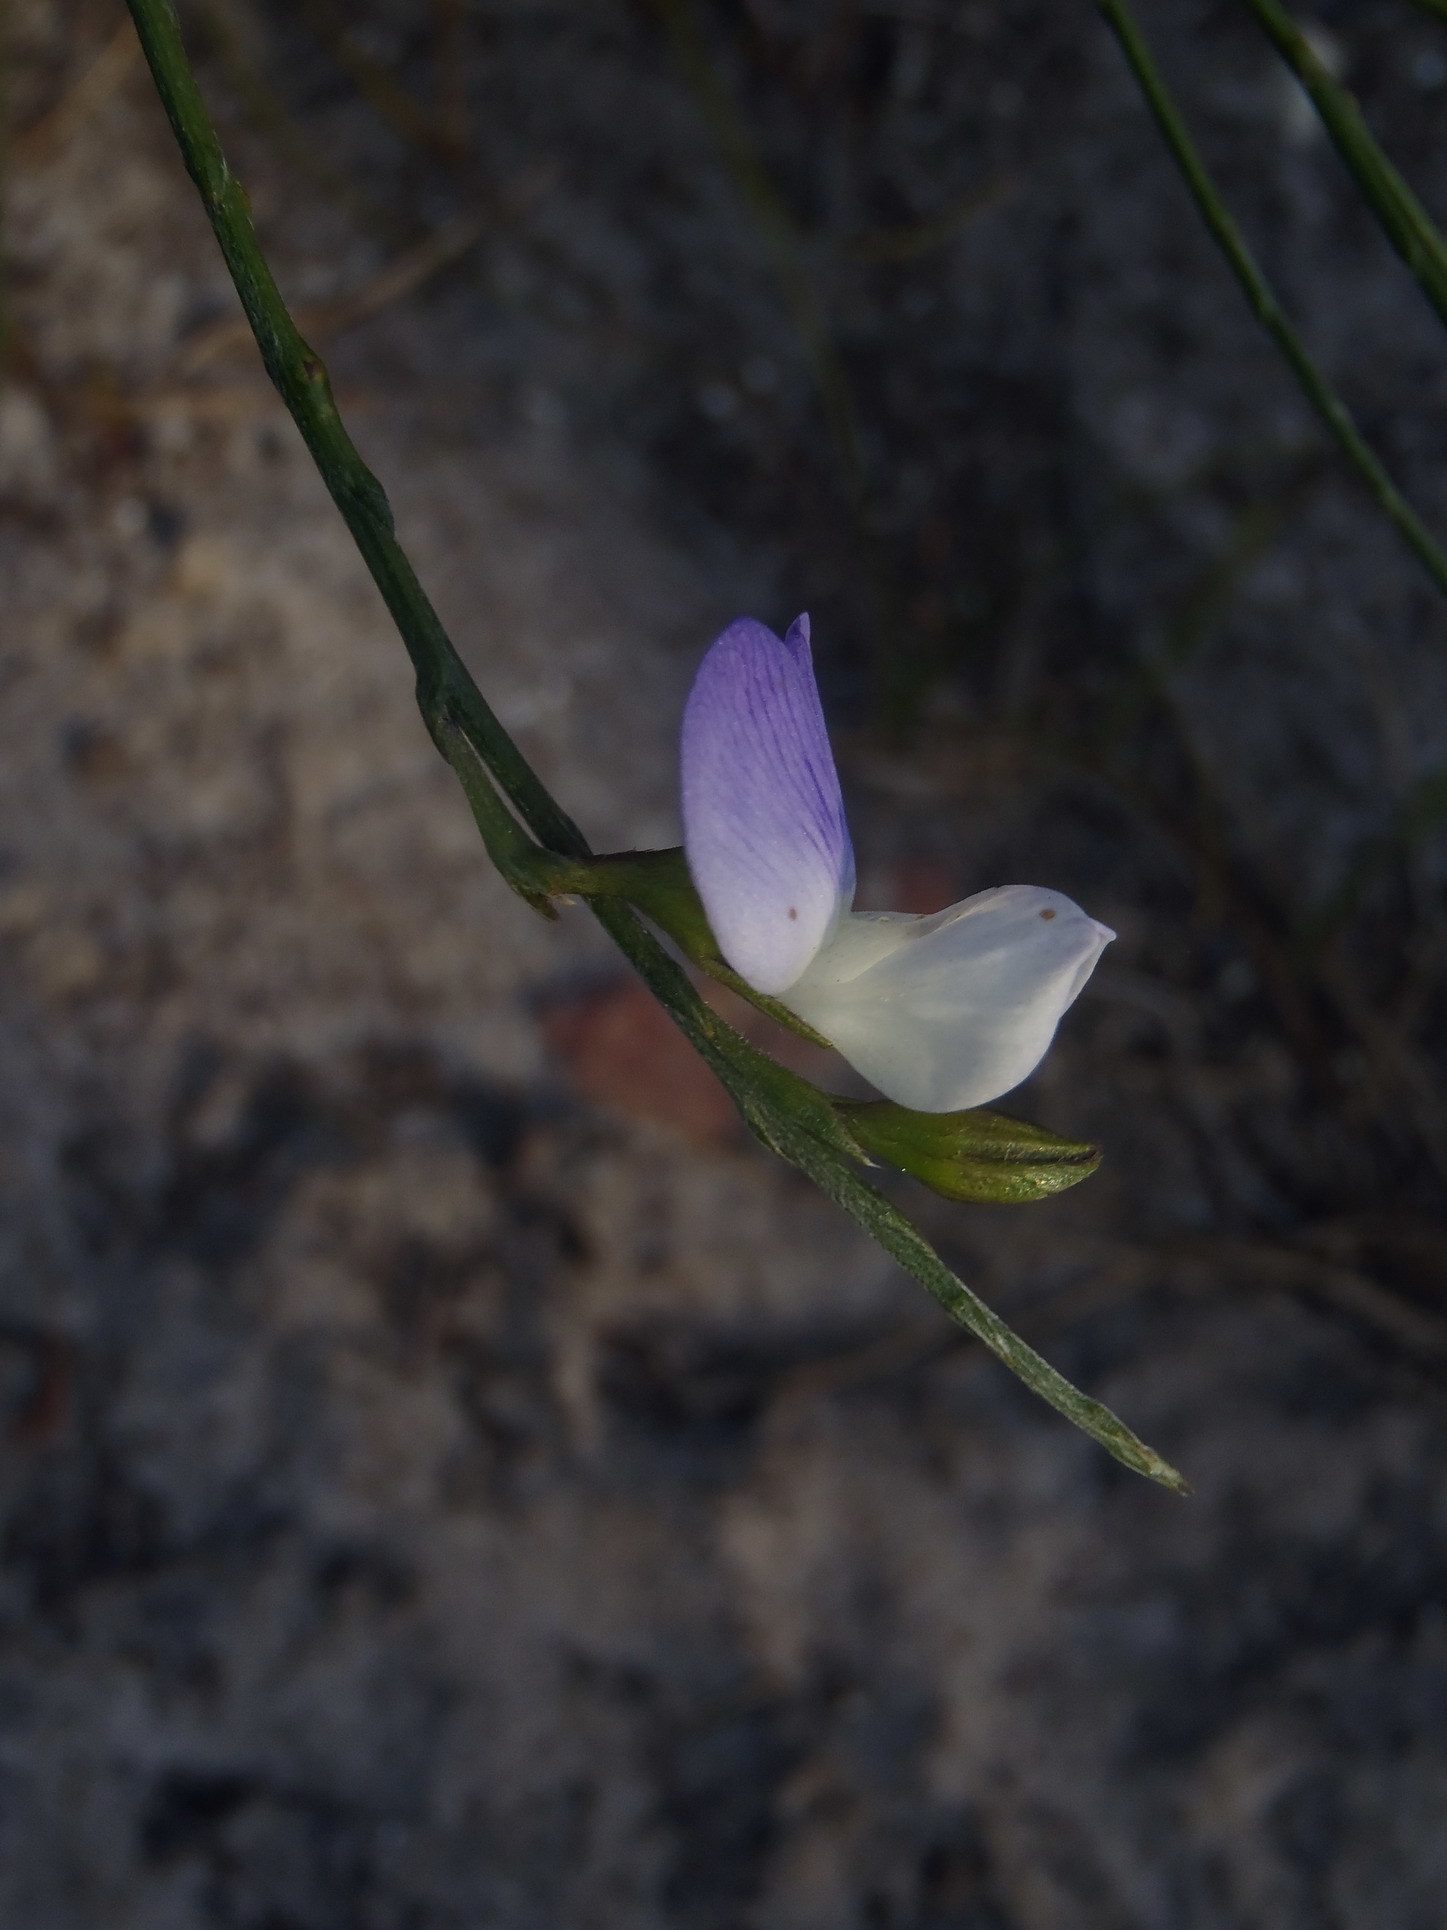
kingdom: Plantae
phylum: Tracheophyta
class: Magnoliopsida
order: Fabales
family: Fabaceae
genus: Psoralea
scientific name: Psoralea pullata
